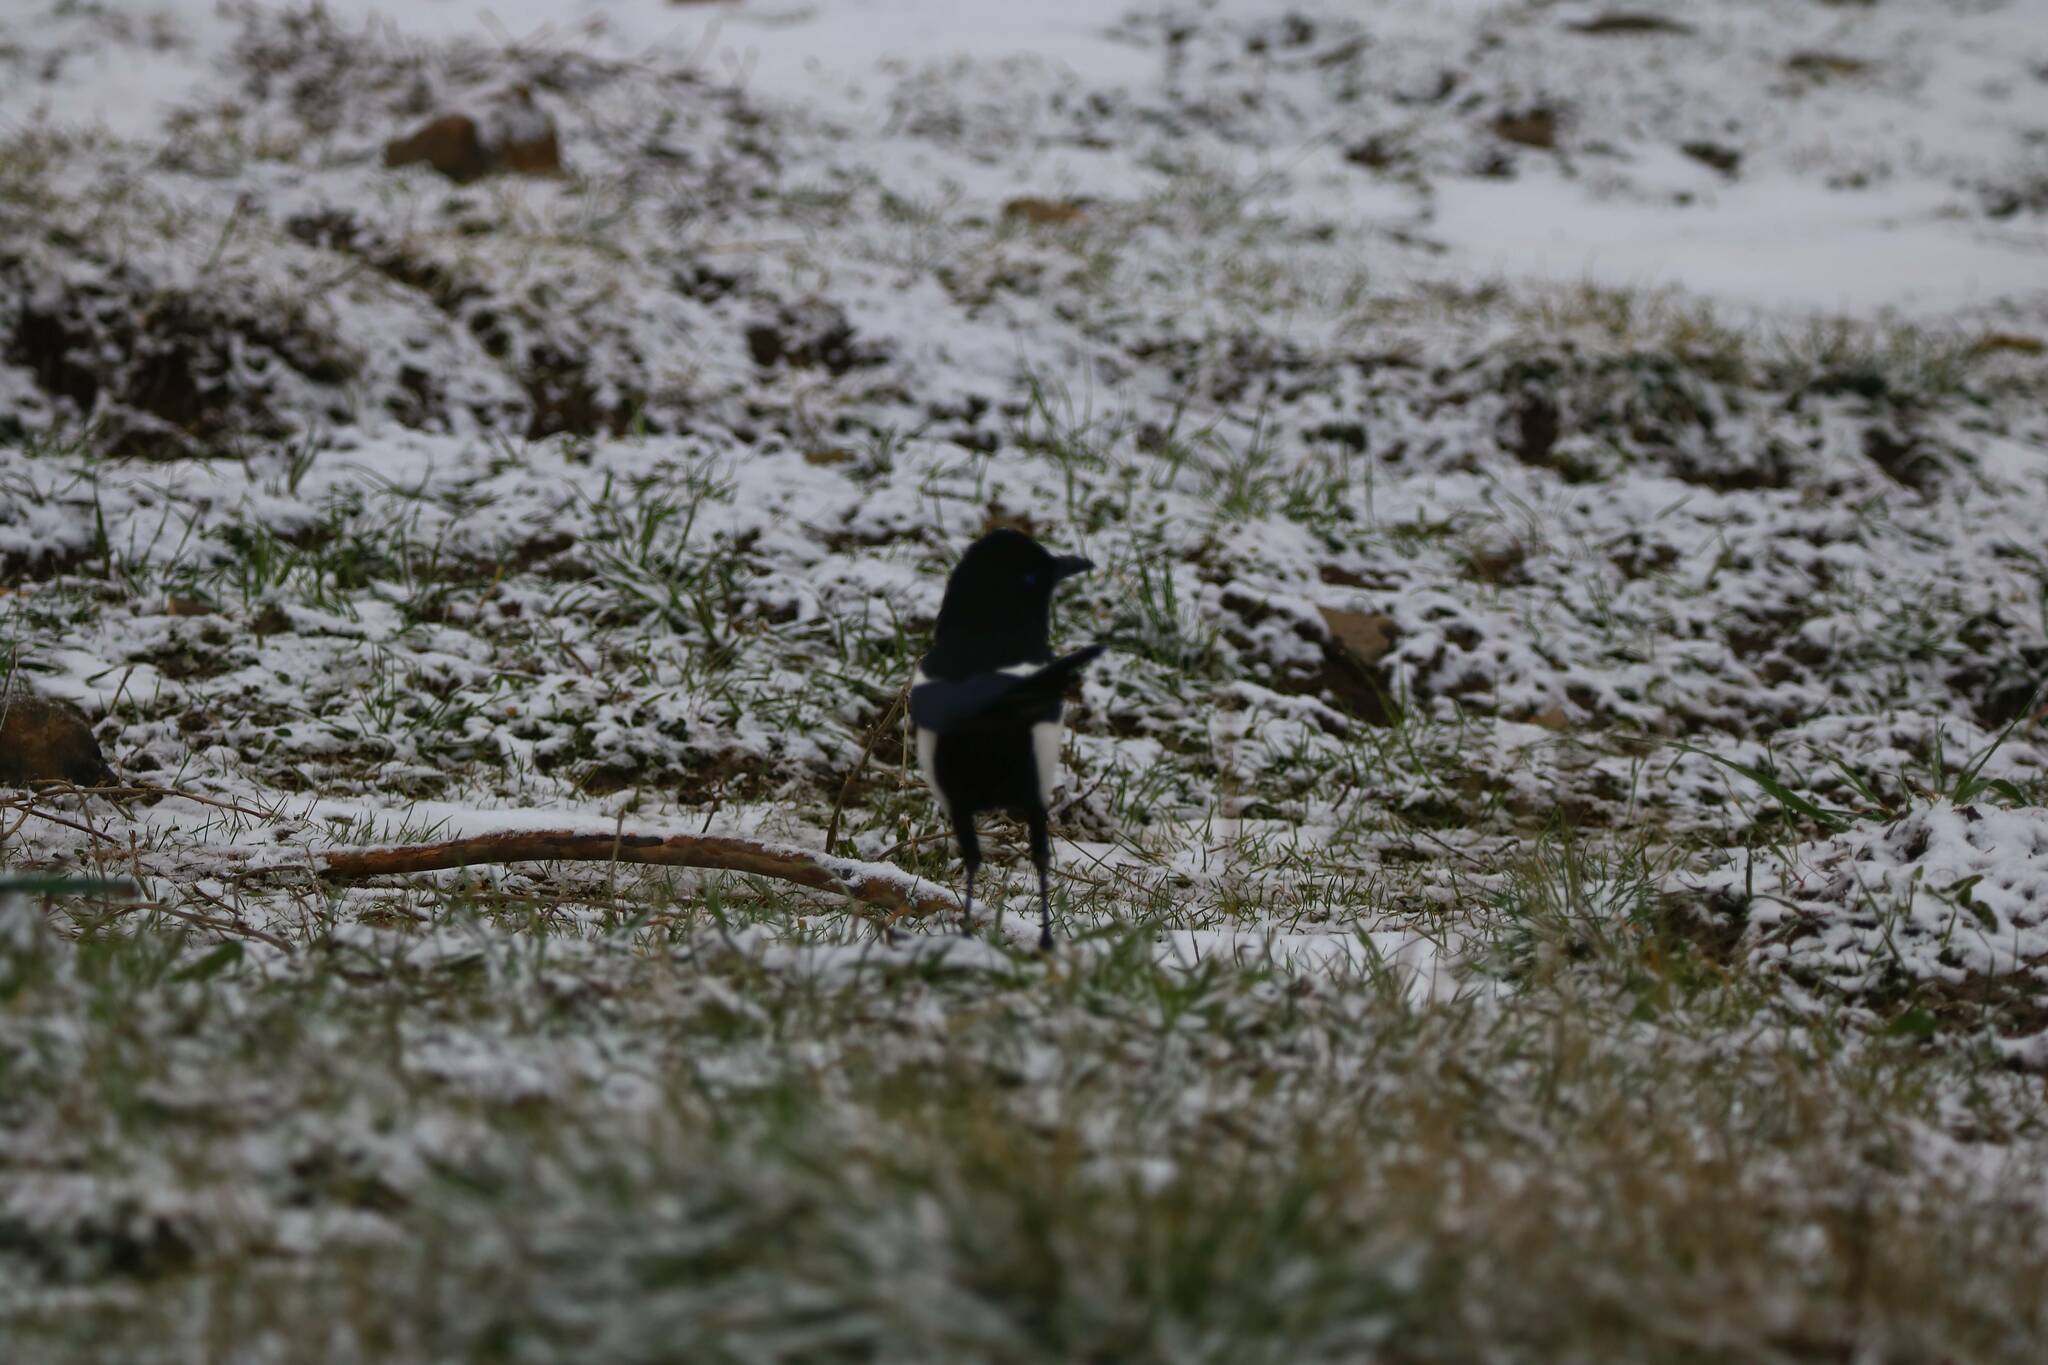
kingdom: Animalia
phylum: Chordata
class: Aves
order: Passeriformes
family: Corvidae
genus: Pica
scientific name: Pica mauritanica
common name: Maghreb magpie
